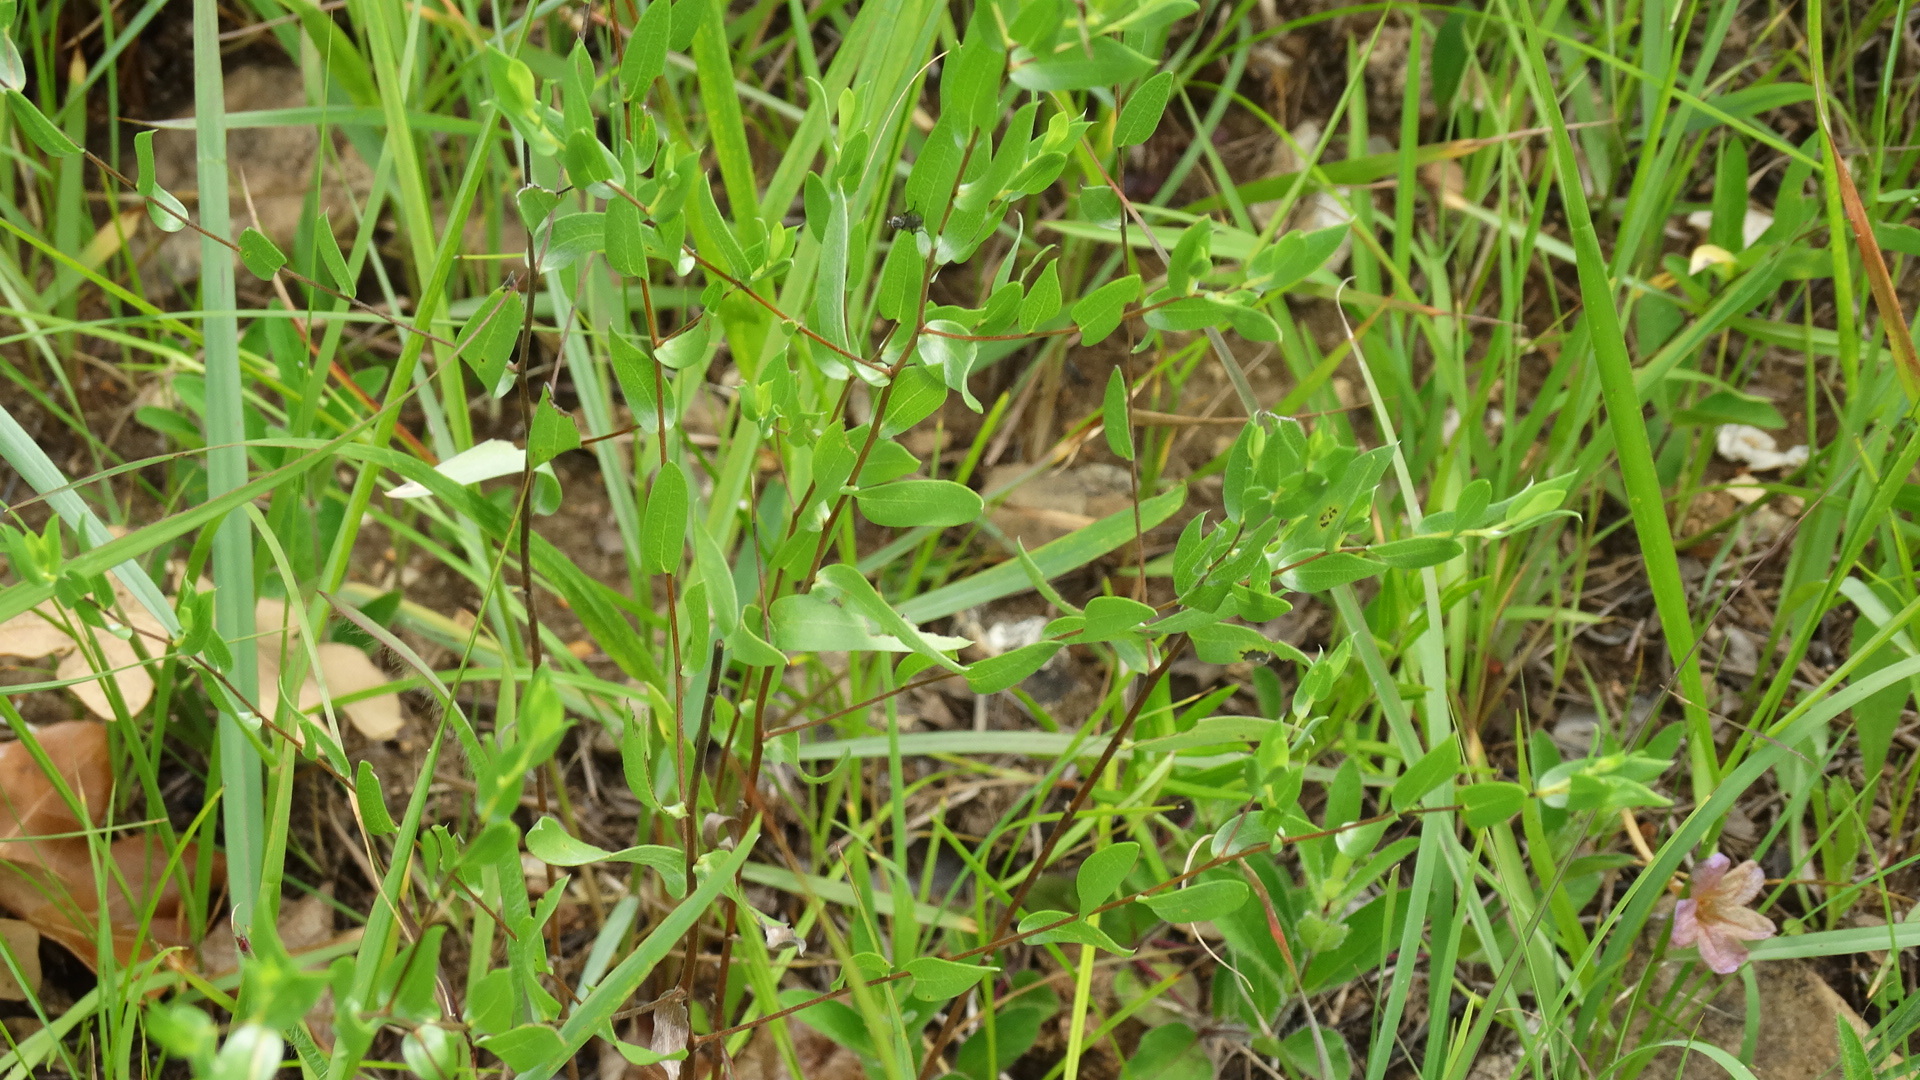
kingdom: Plantae
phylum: Tracheophyta
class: Magnoliopsida
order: Asterales
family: Asteraceae
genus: Symphyotrichum
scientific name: Symphyotrichum sericeum
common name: Silky aster
